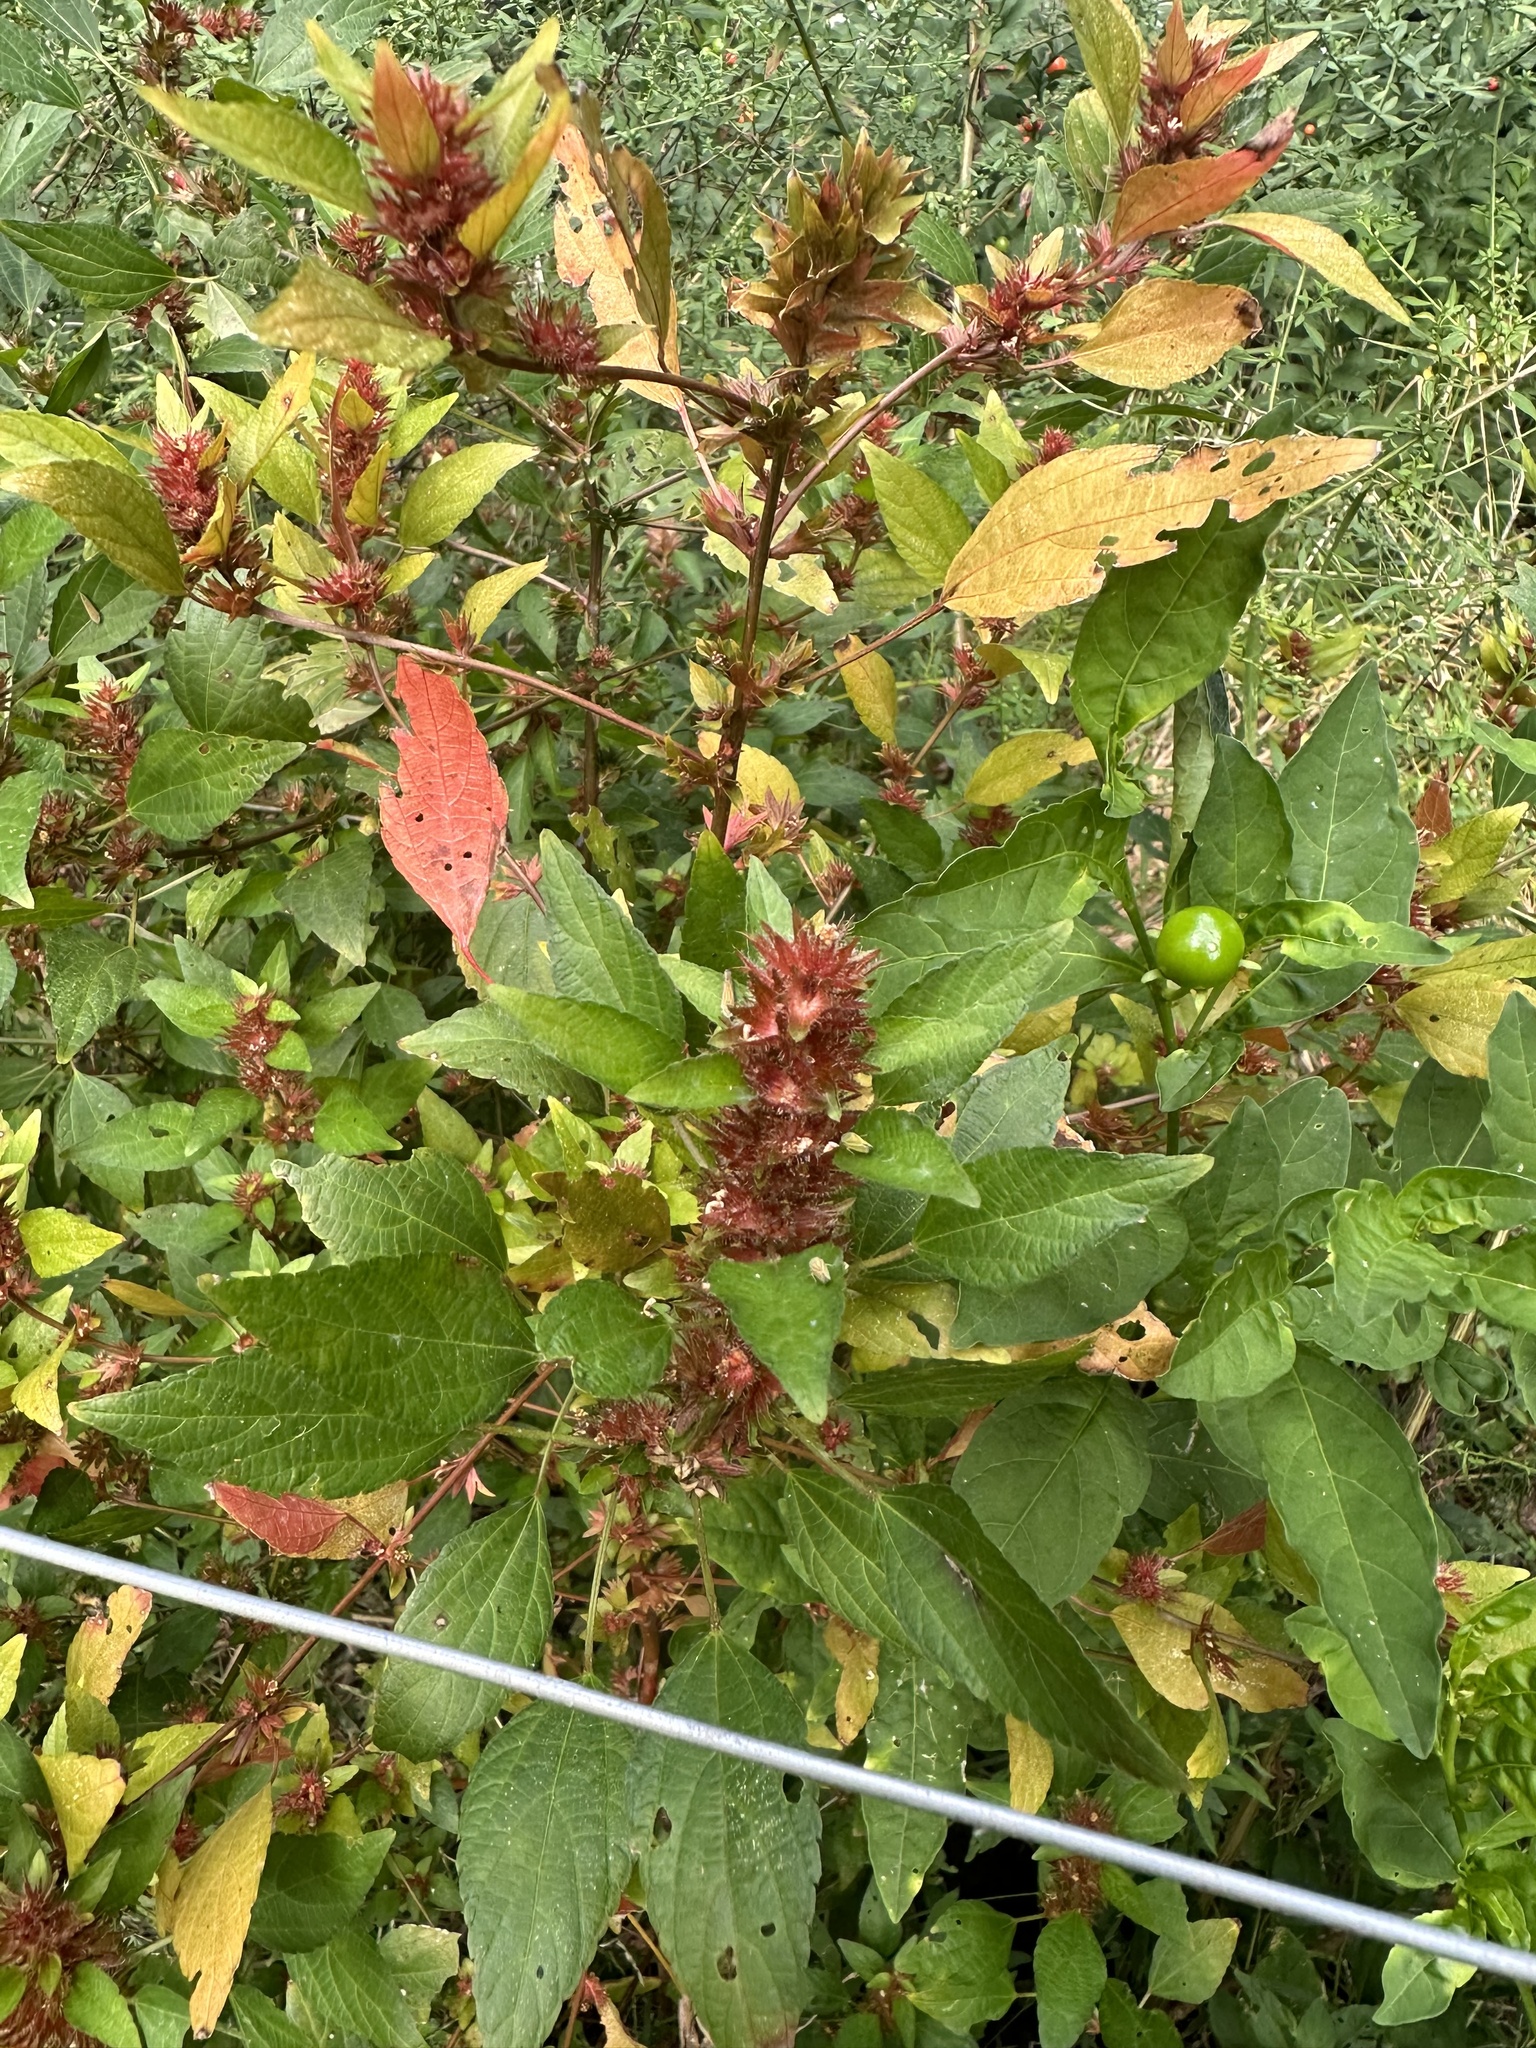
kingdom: Plantae
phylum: Tracheophyta
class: Magnoliopsida
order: Malpighiales
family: Euphorbiaceae
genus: Acalypha
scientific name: Acalypha rhomboidea
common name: Rhombic copperleaf
